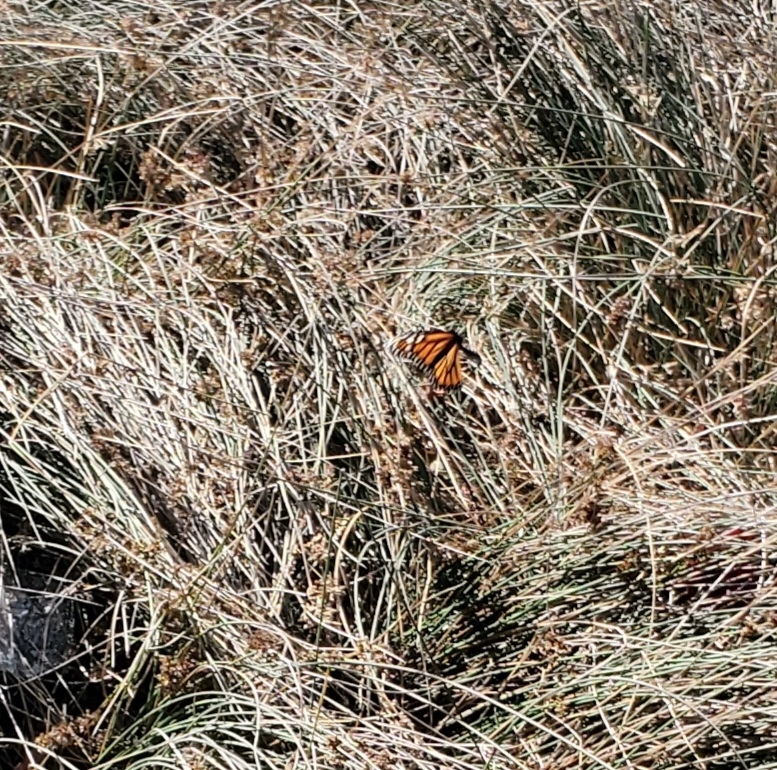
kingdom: Animalia
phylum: Arthropoda
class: Insecta
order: Lepidoptera
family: Nymphalidae
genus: Danaus
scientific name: Danaus plexippus
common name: Monarch
